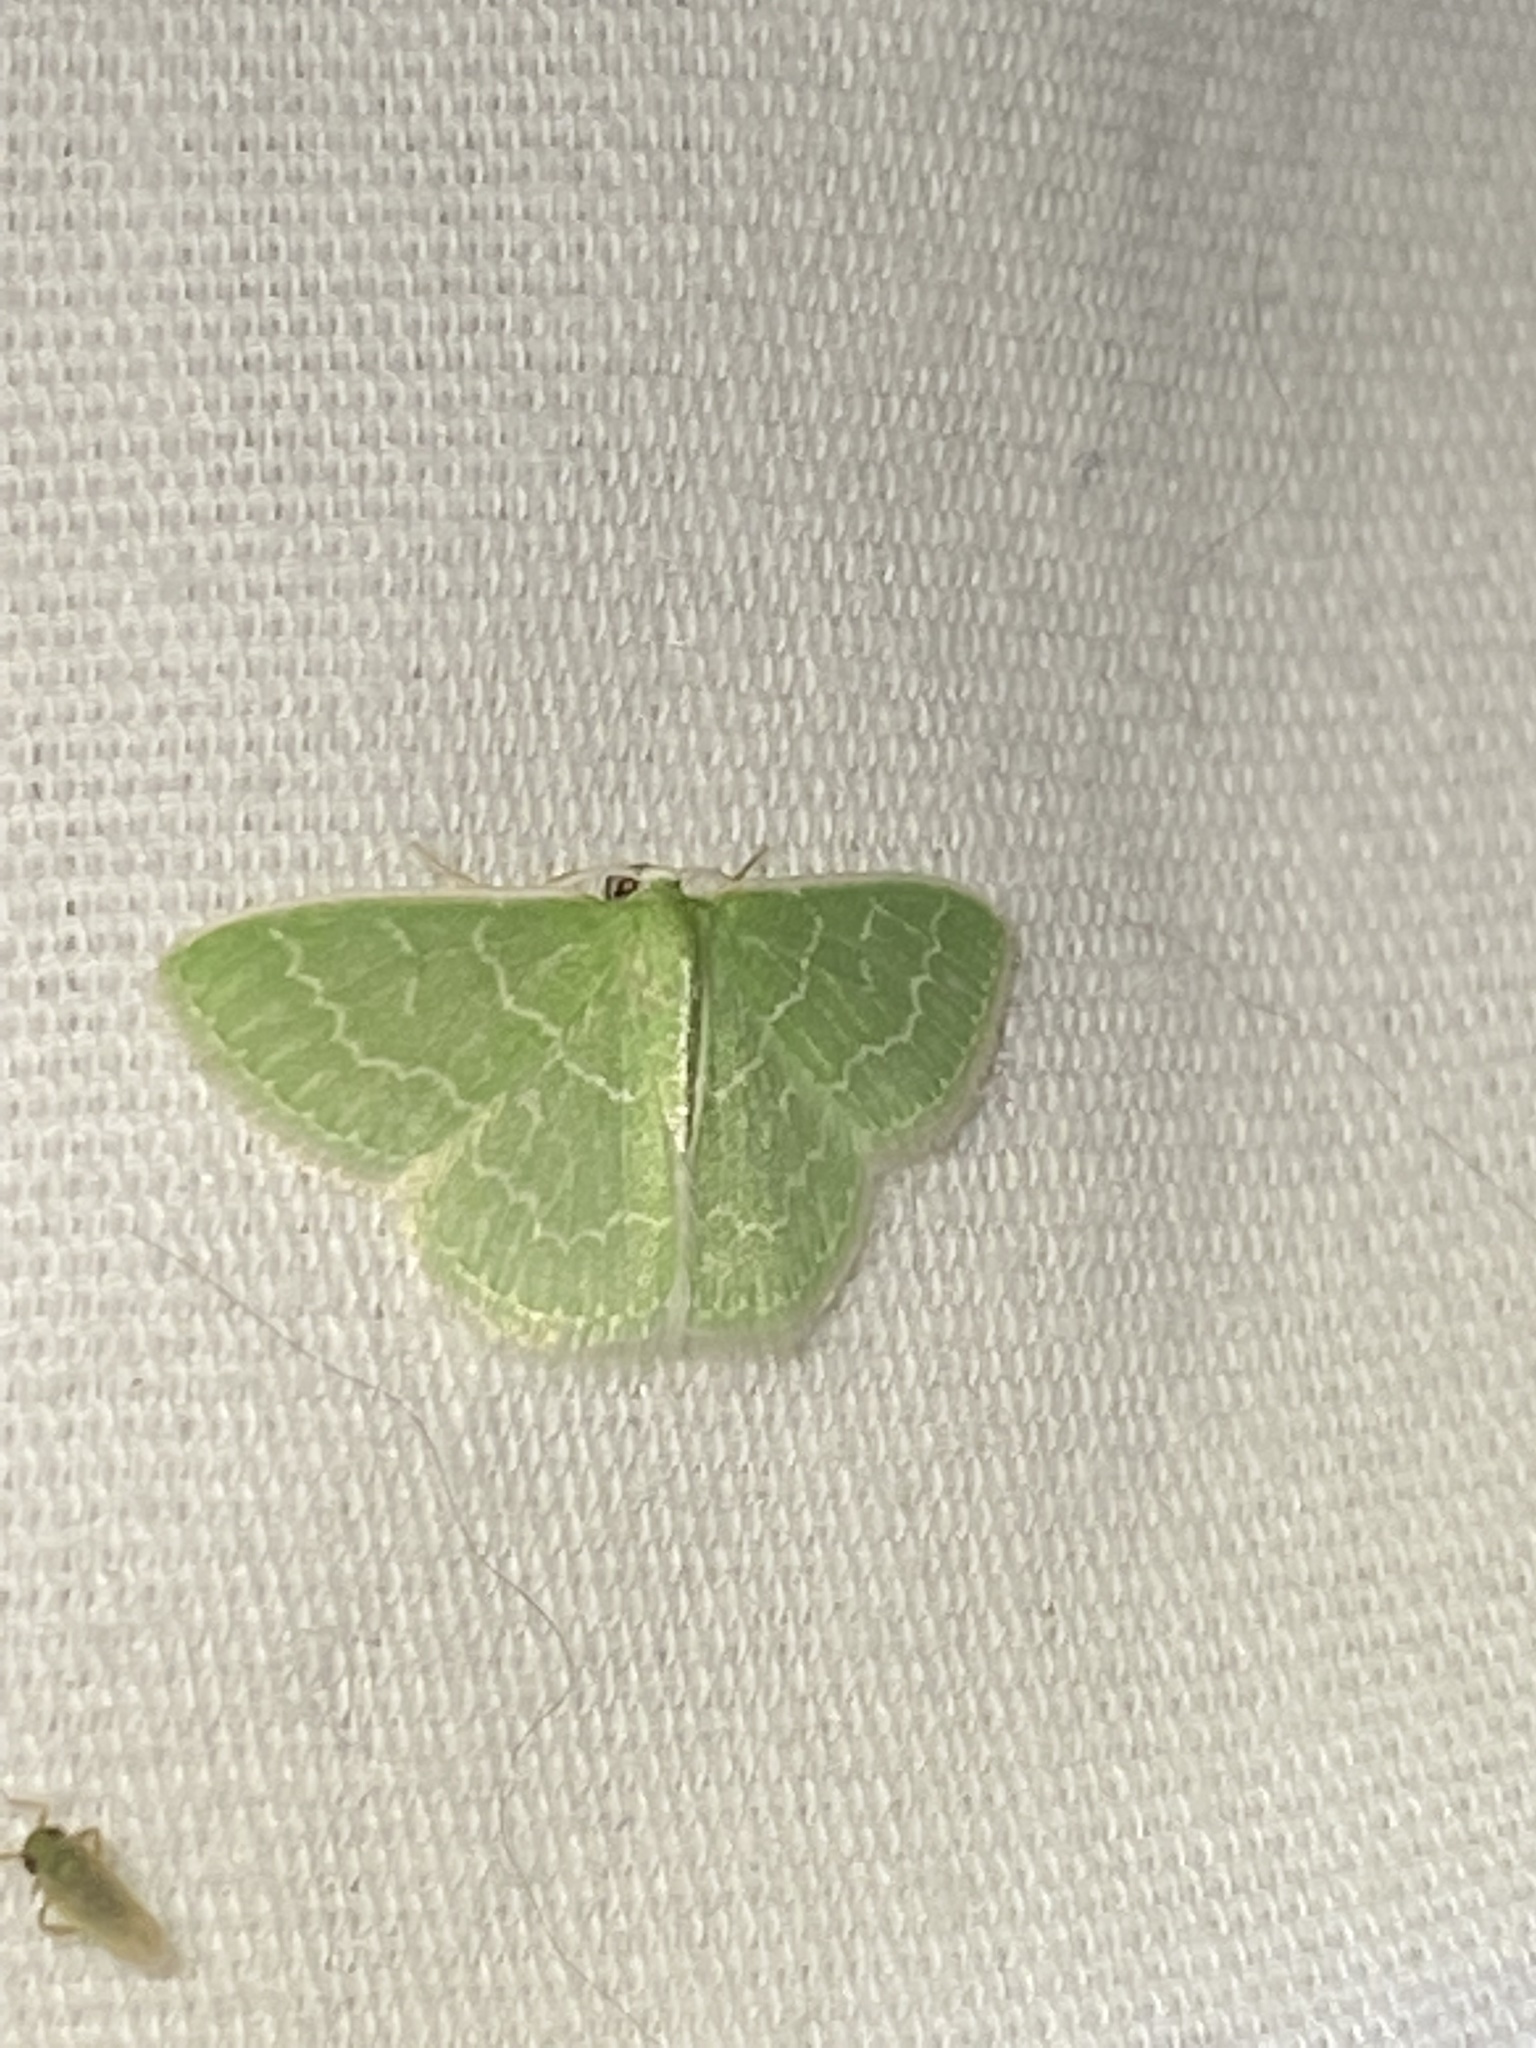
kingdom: Animalia
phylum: Arthropoda
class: Insecta
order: Lepidoptera
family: Geometridae
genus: Synchlora
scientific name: Synchlora frondaria
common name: Southern emerald
